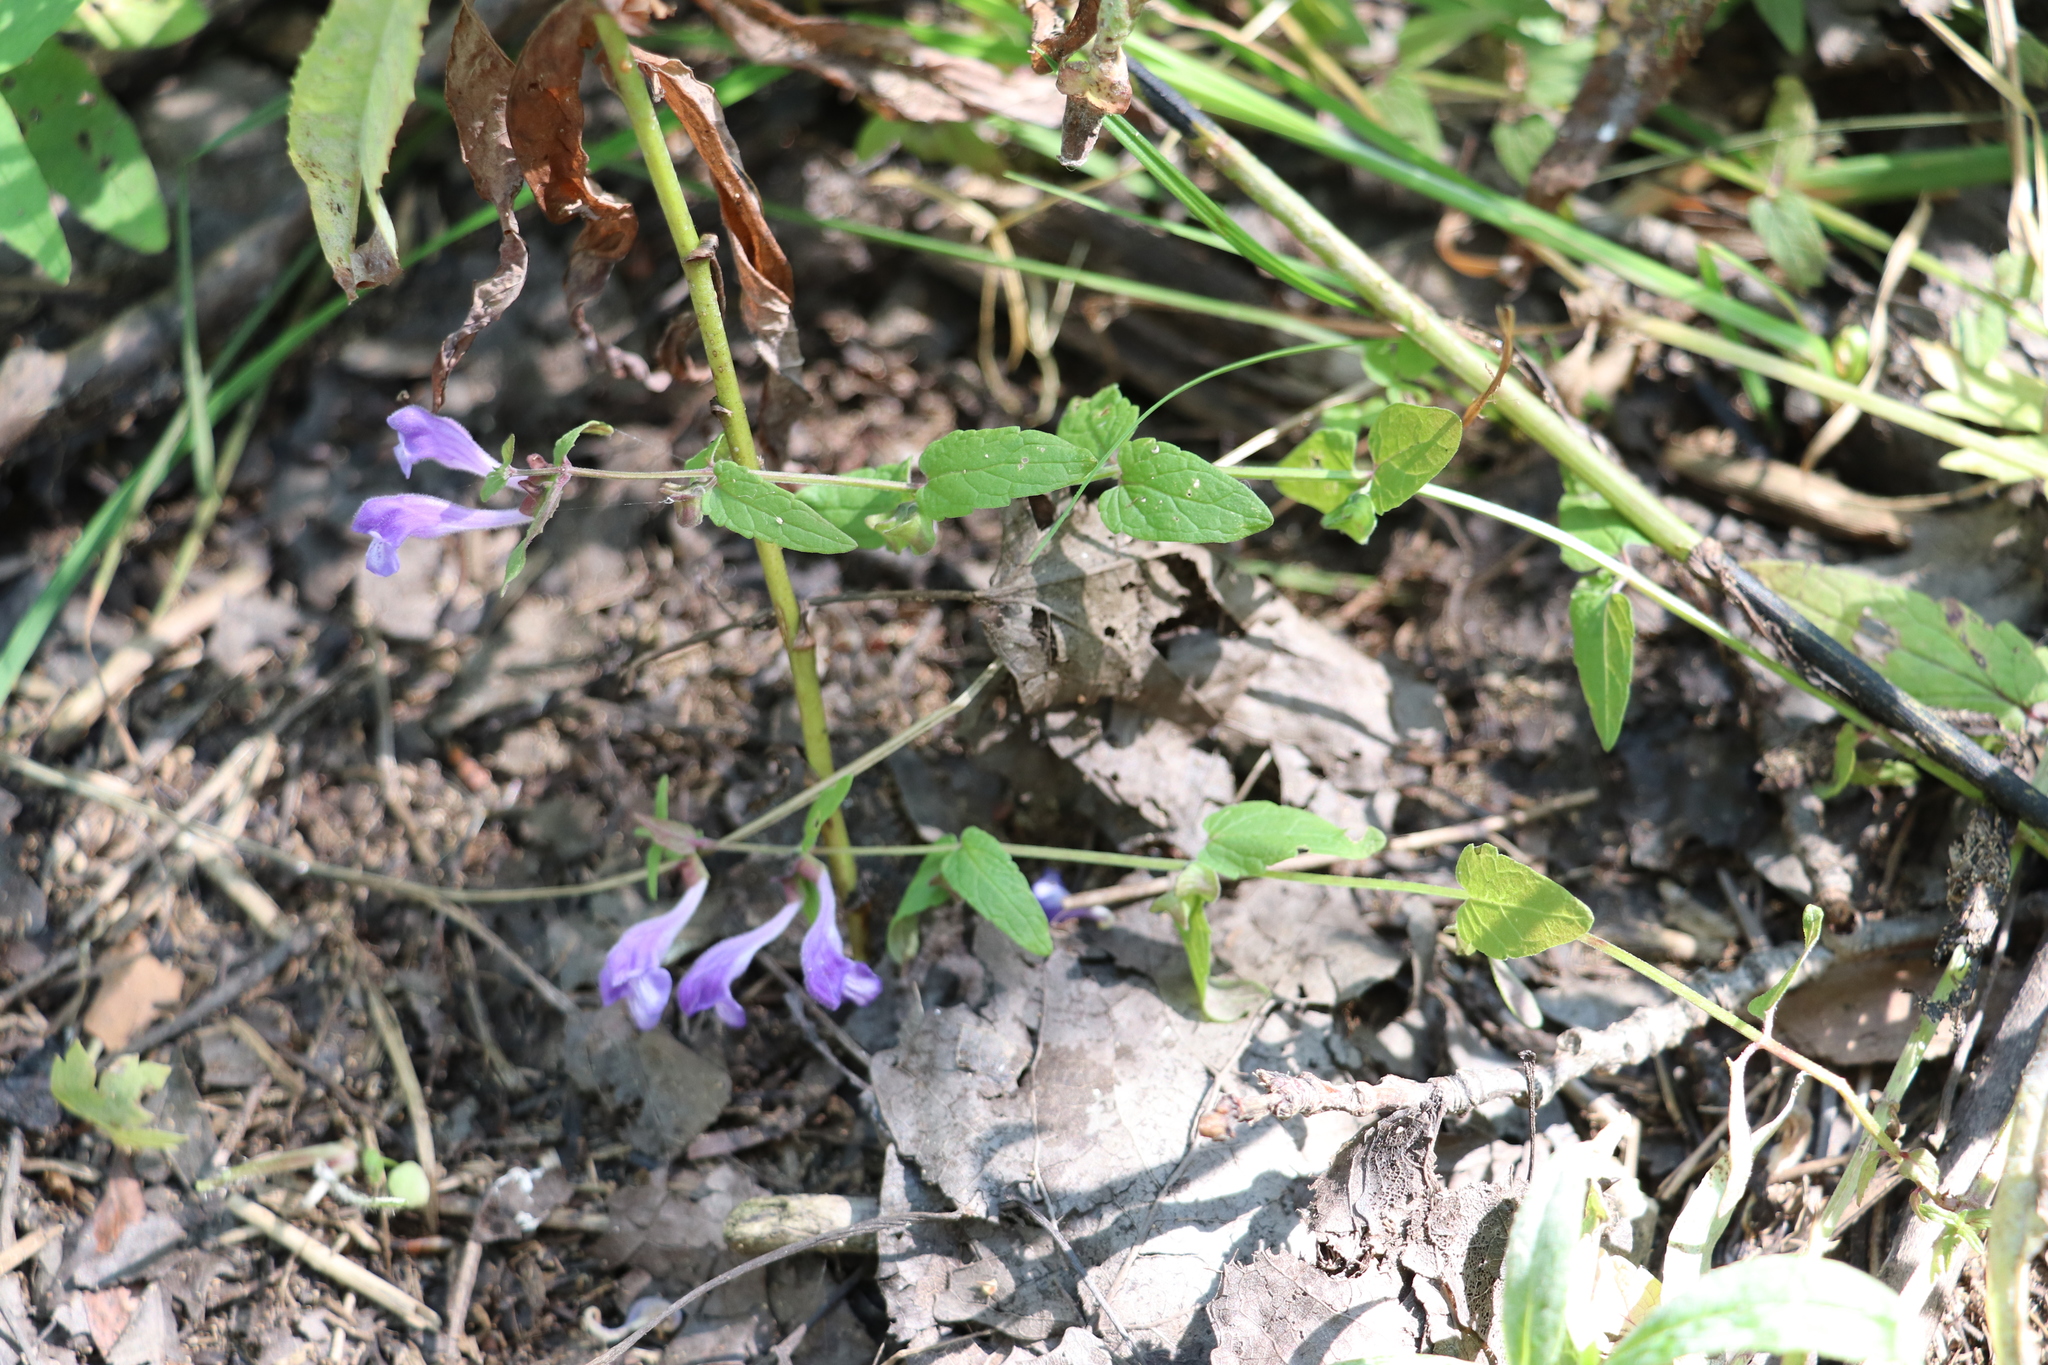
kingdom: Plantae
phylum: Tracheophyta
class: Magnoliopsida
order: Lamiales
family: Lamiaceae
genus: Scutellaria
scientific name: Scutellaria galericulata
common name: Skullcap
